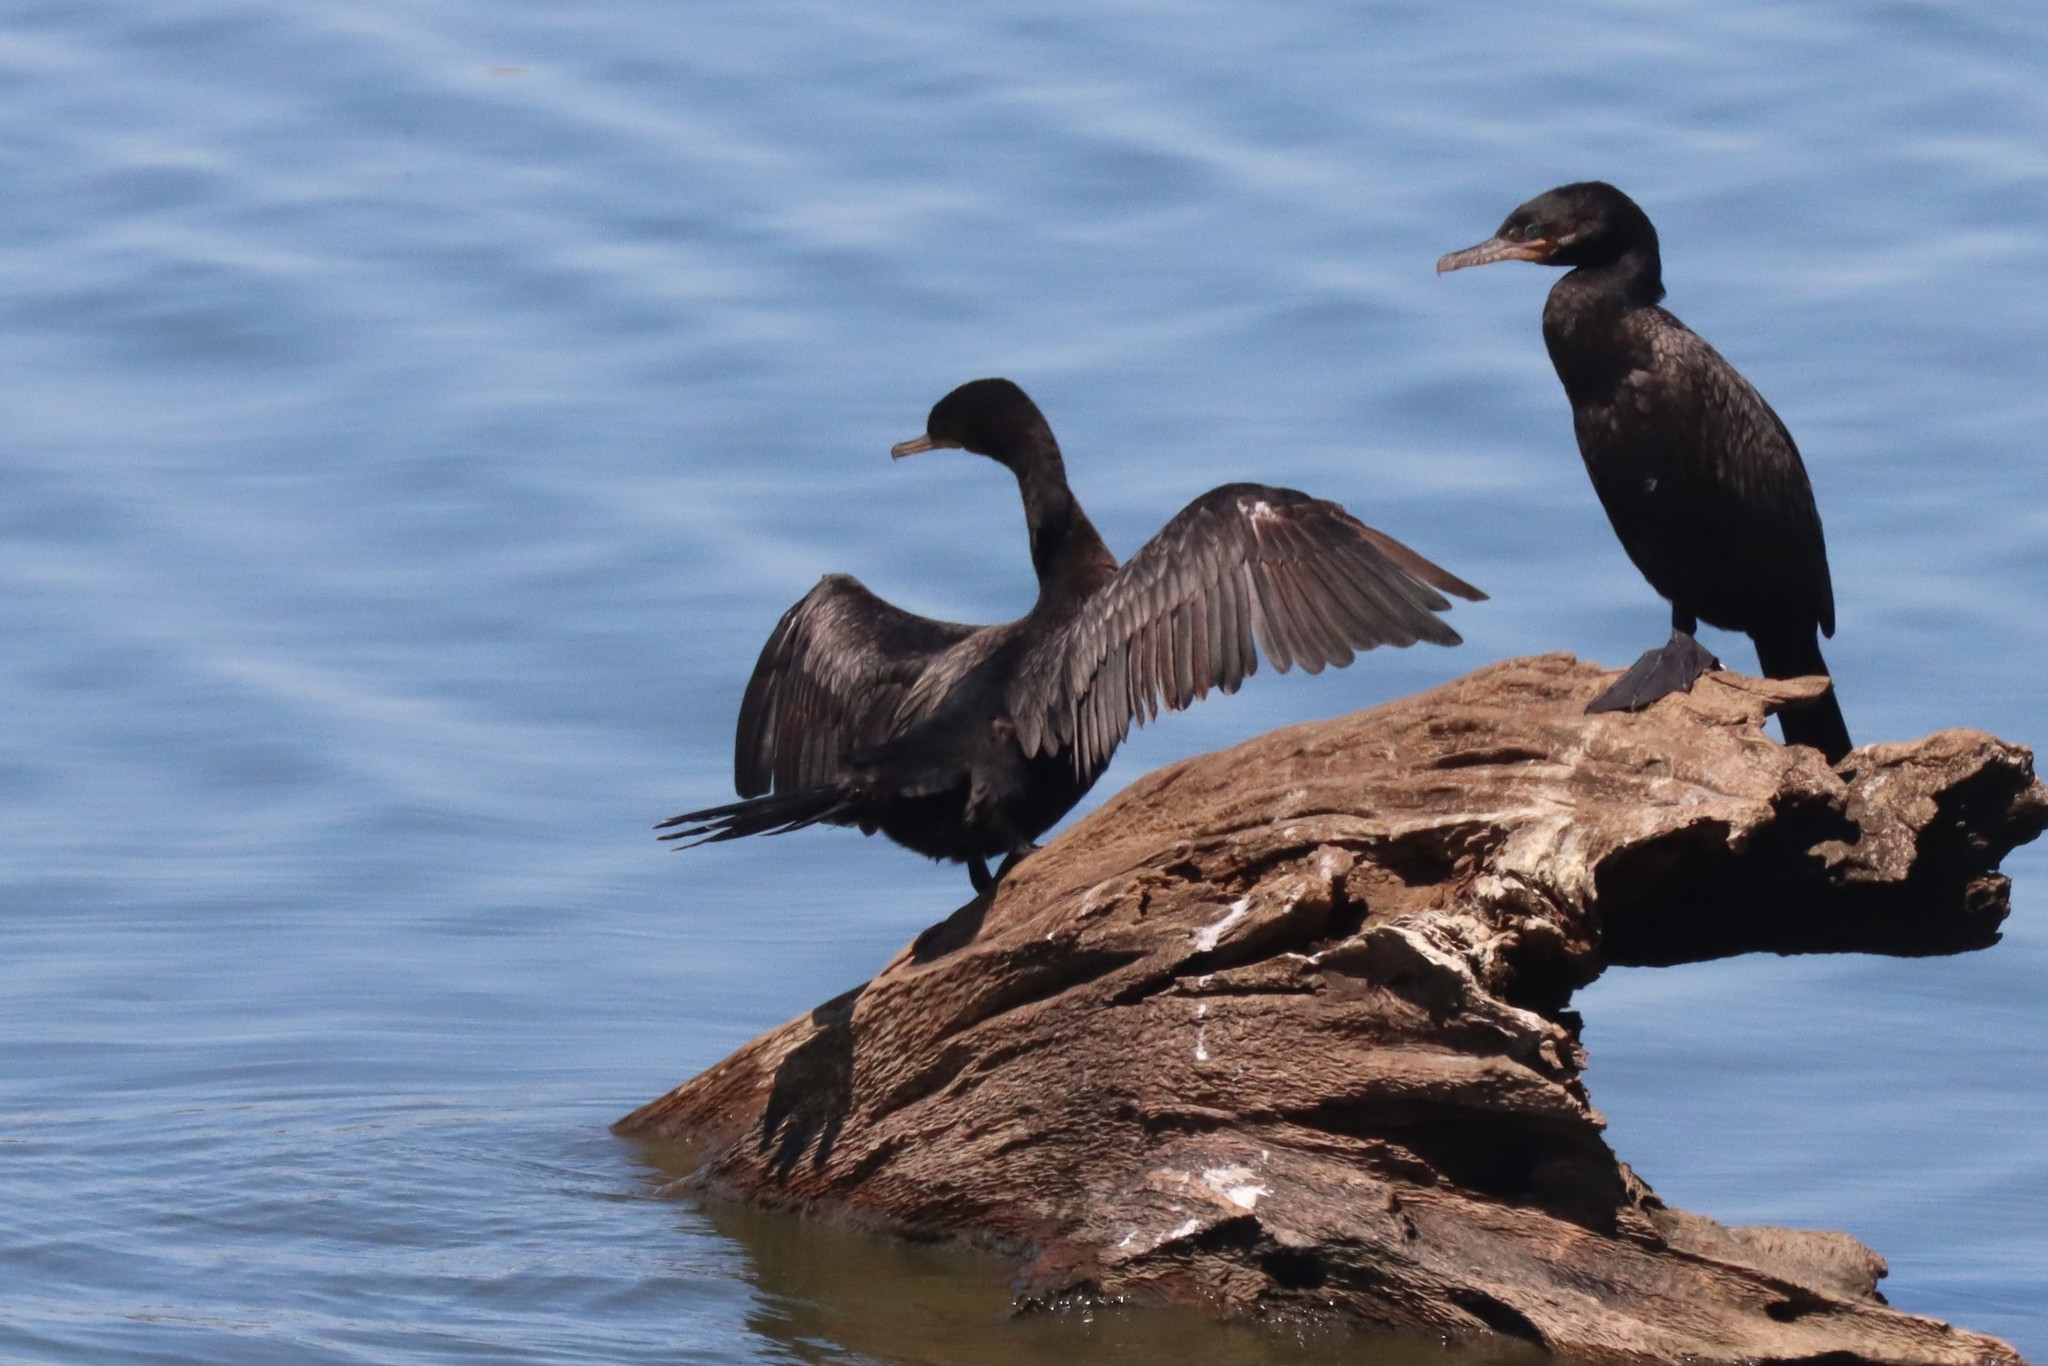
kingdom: Animalia
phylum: Chordata
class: Aves
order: Suliformes
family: Phalacrocoracidae
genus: Phalacrocorax
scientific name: Phalacrocorax brasilianus
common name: Neotropic cormorant
